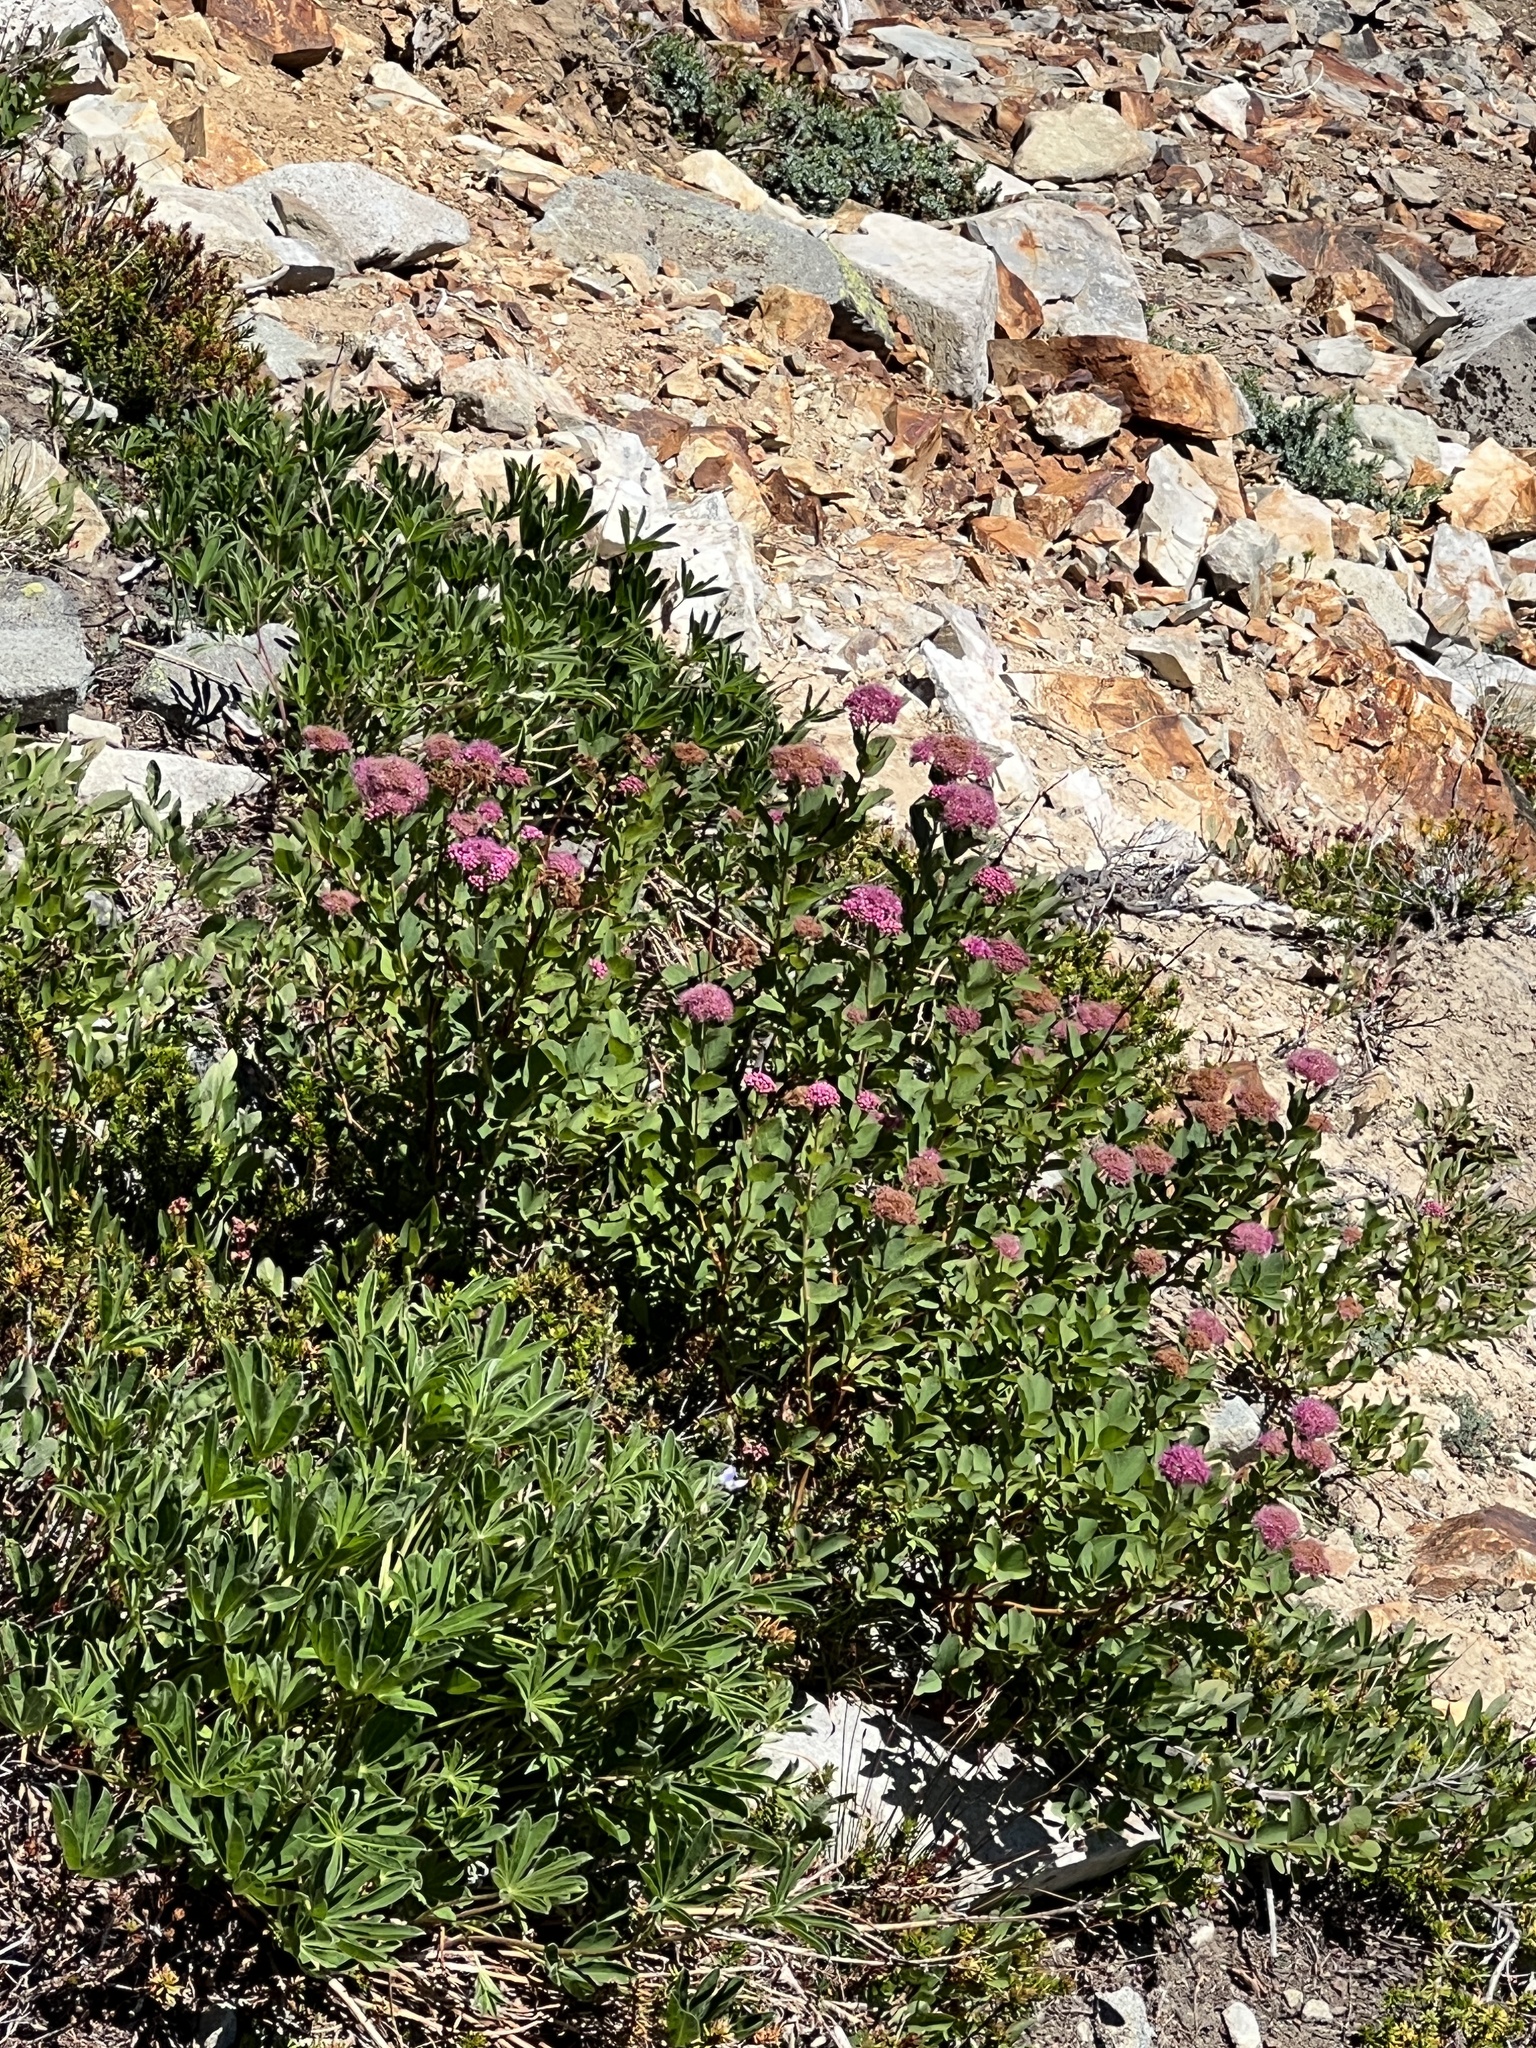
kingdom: Plantae
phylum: Tracheophyta
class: Magnoliopsida
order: Rosales
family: Rosaceae
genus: Spiraea
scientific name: Spiraea splendens
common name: Subalpine meadowsweet
